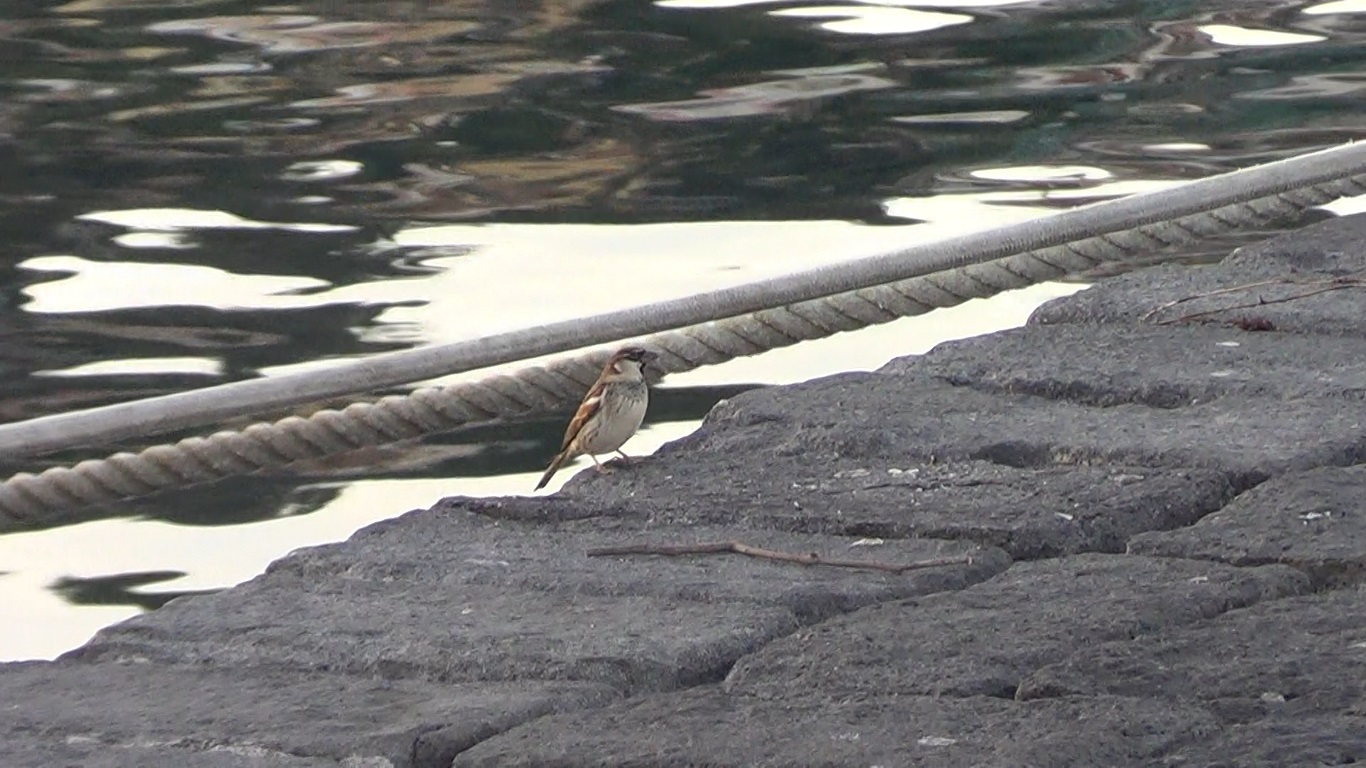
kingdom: Animalia
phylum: Chordata
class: Aves
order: Passeriformes
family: Passeridae
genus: Passer
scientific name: Passer italiae
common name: Italian sparrow
